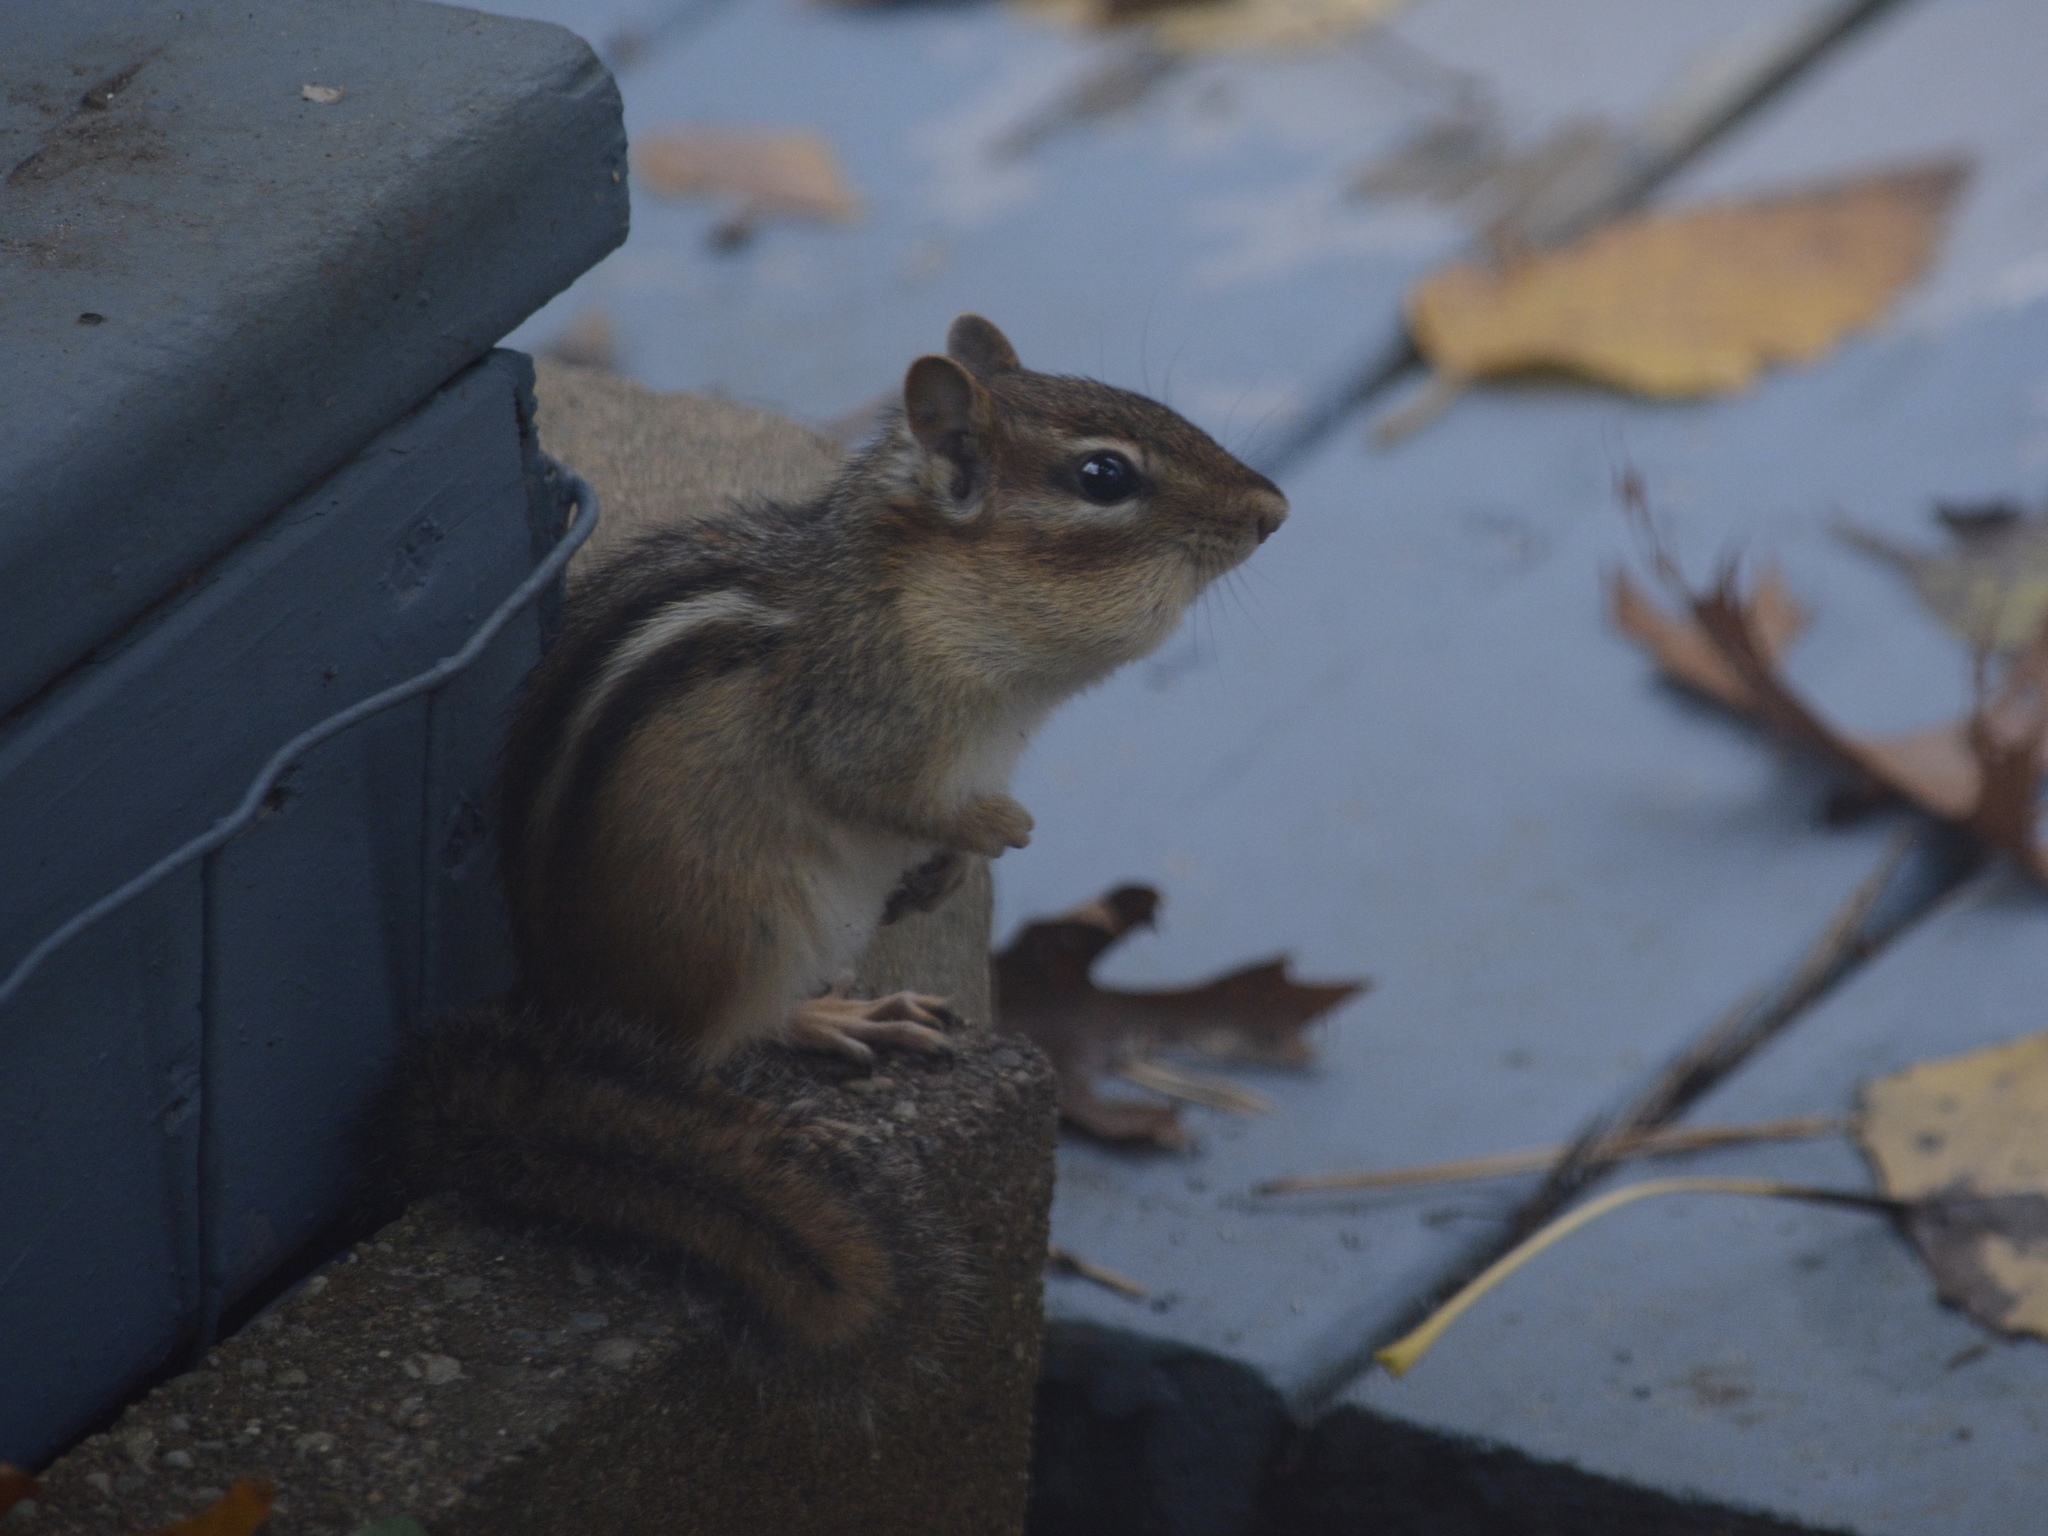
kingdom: Animalia
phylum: Chordata
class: Mammalia
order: Rodentia
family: Sciuridae
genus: Tamias
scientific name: Tamias striatus
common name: Eastern chipmunk
